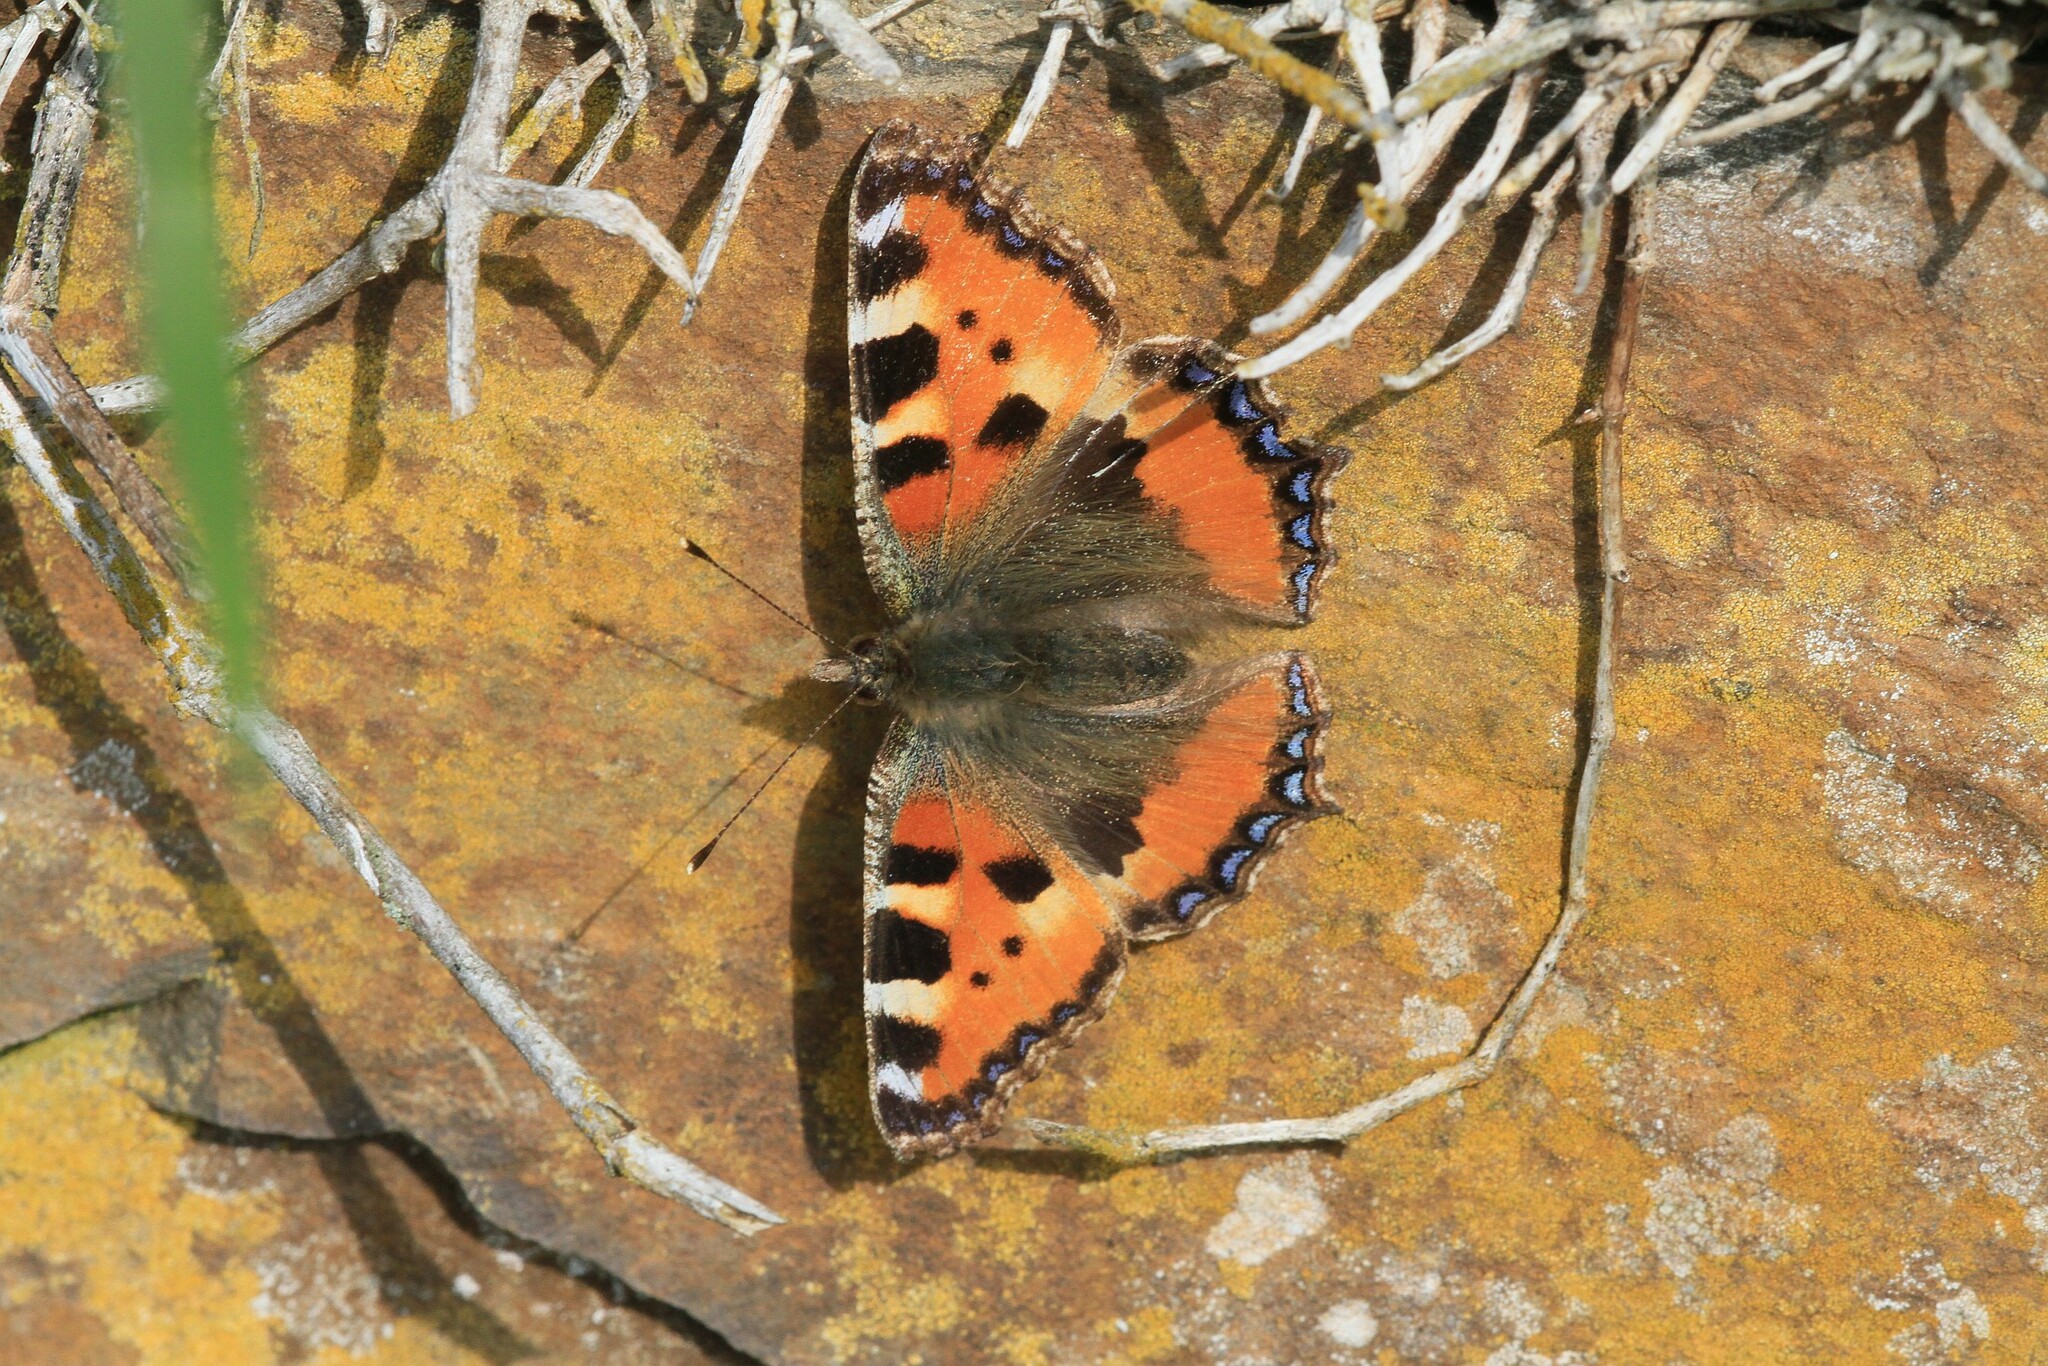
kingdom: Animalia
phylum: Arthropoda
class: Insecta
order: Lepidoptera
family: Nymphalidae
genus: Aglais
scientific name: Aglais urticae
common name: Small tortoiseshell
